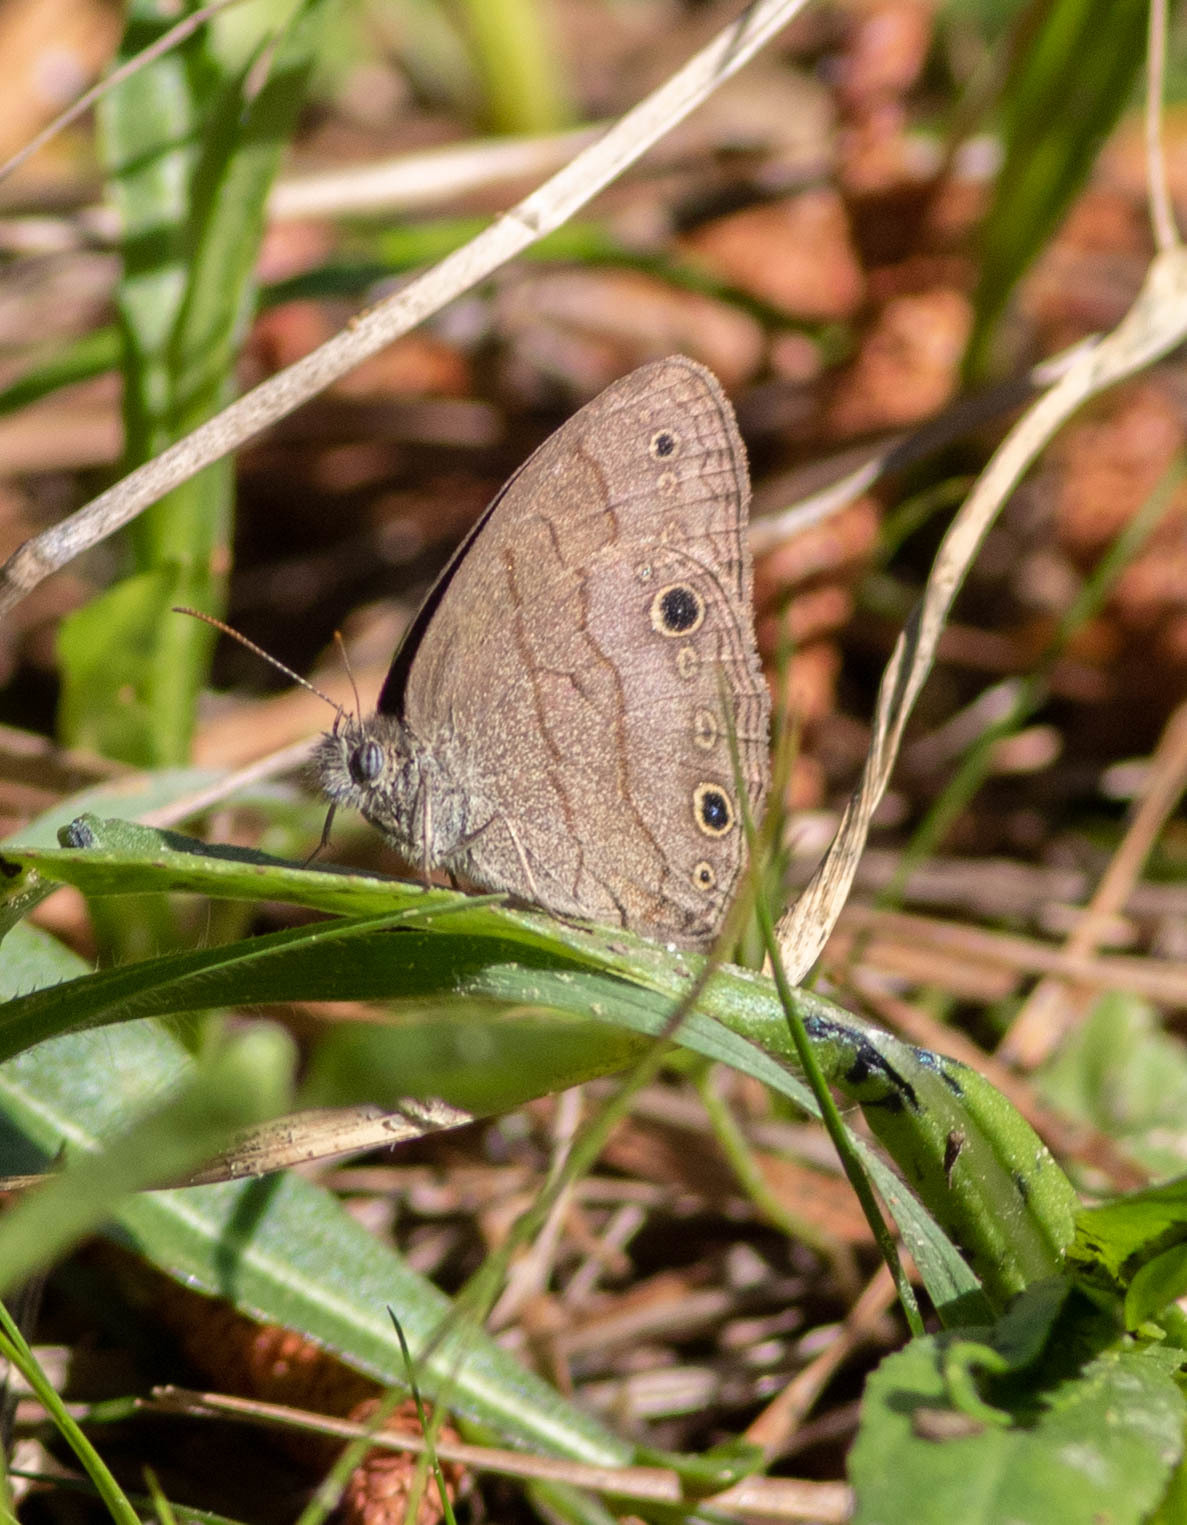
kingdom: Animalia
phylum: Arthropoda
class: Insecta
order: Lepidoptera
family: Nymphalidae
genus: Hermeuptychia
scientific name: Hermeuptychia hermes
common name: Hermes satyr
